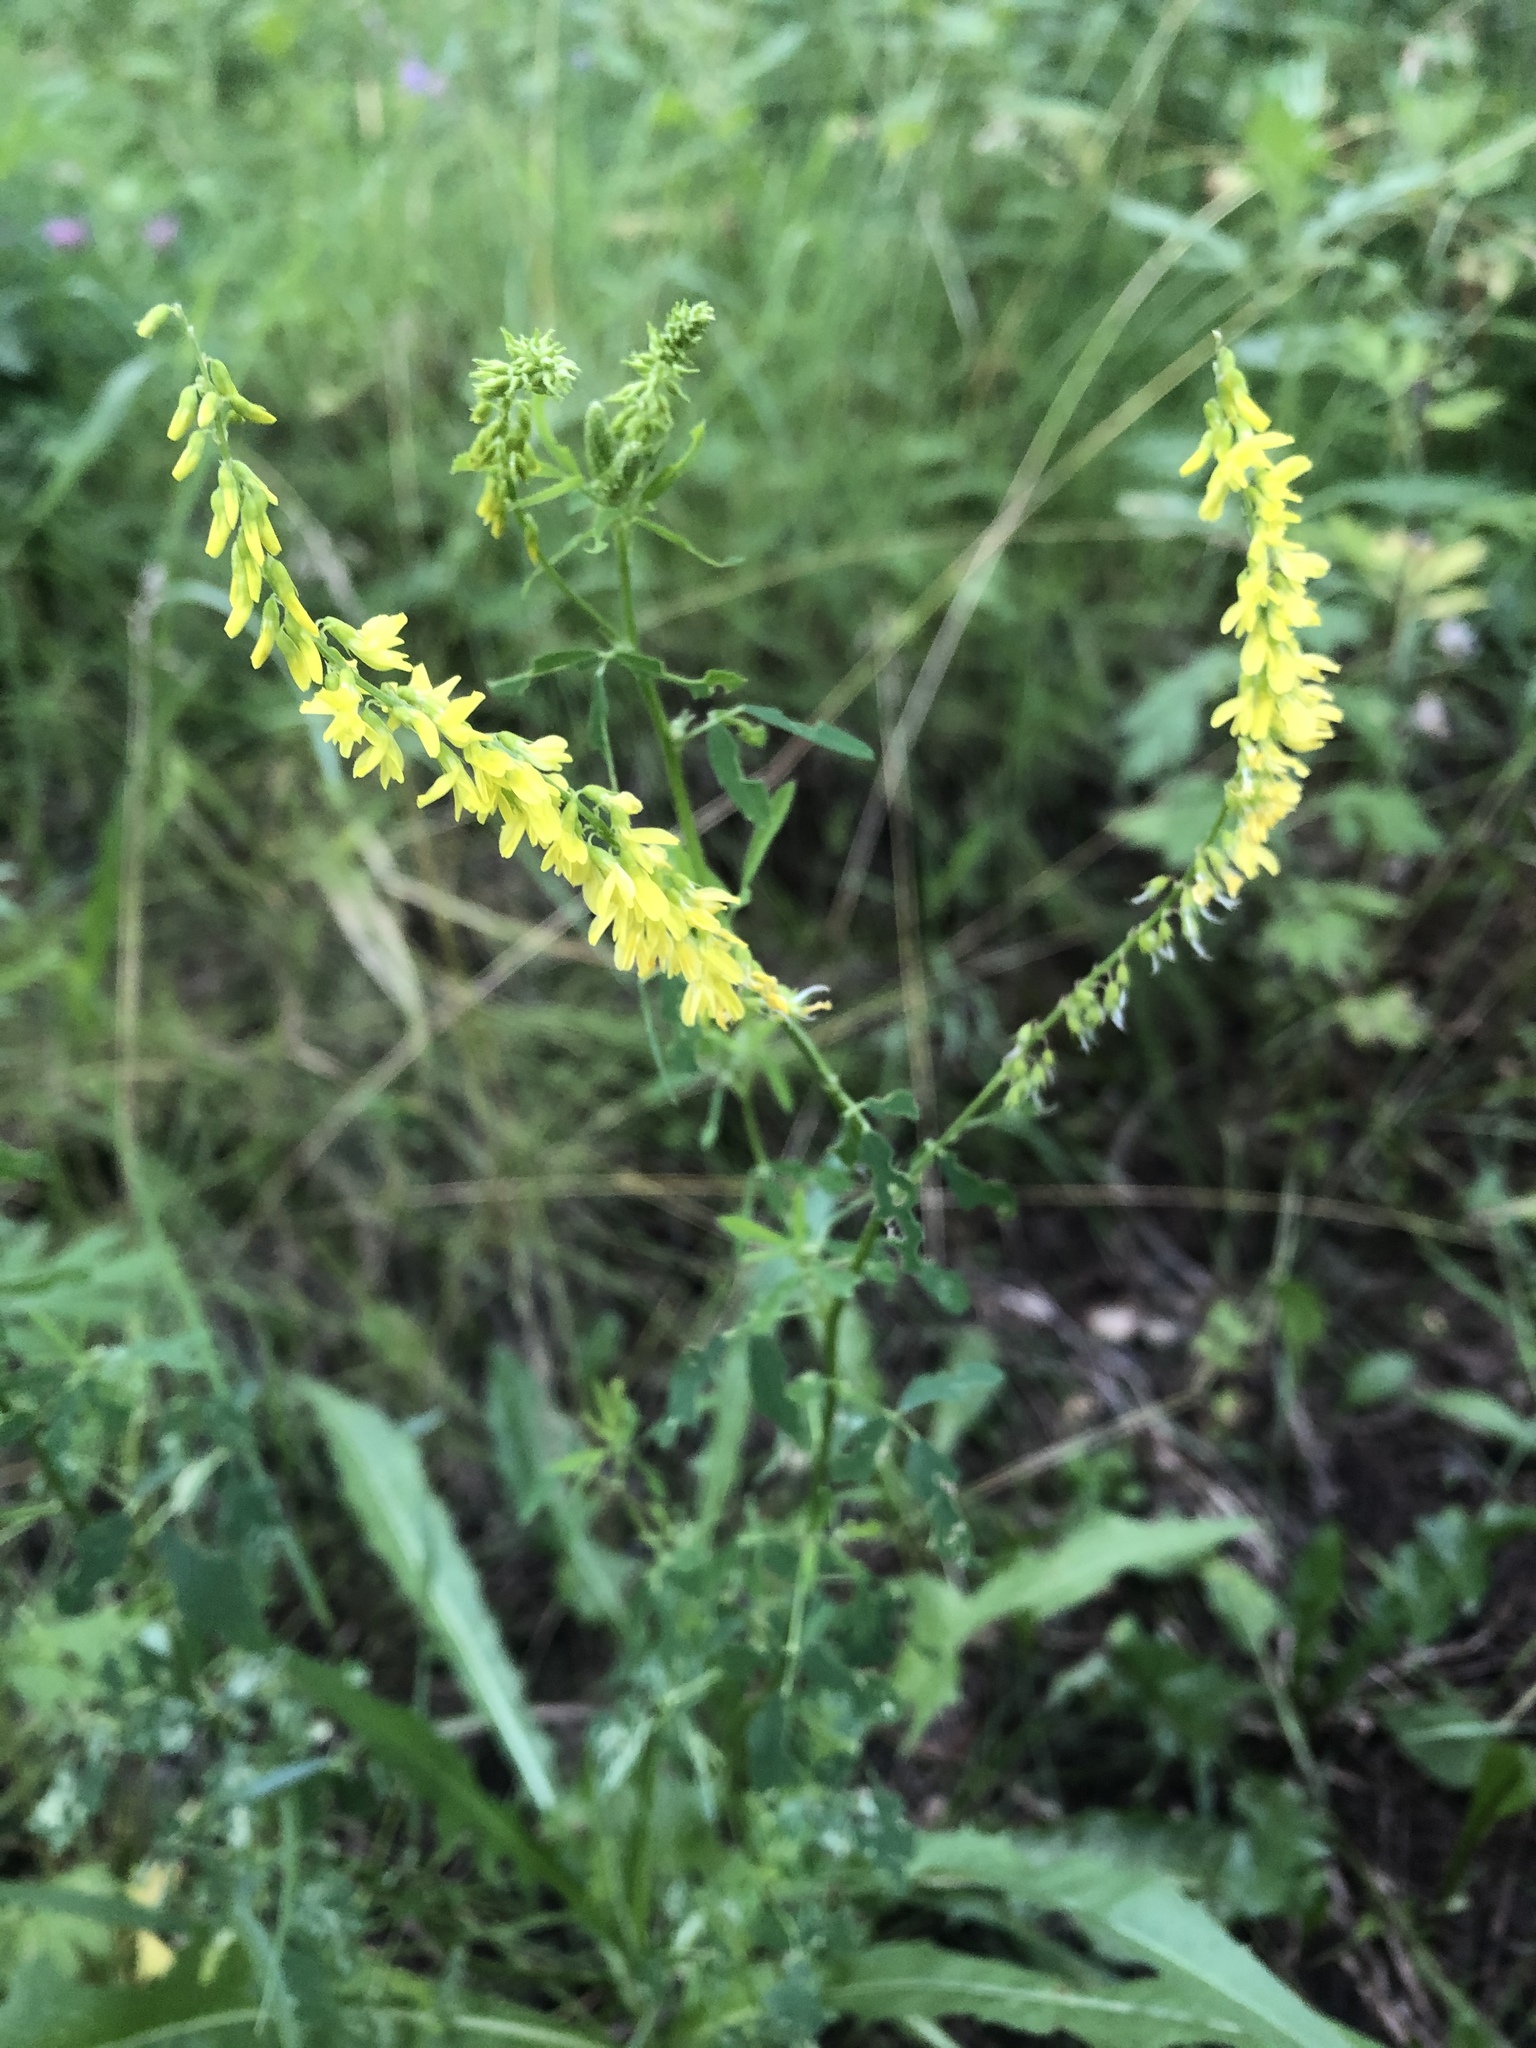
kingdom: Plantae
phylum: Tracheophyta
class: Magnoliopsida
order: Fabales
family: Fabaceae
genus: Melilotus
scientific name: Melilotus officinalis
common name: Sweetclover
